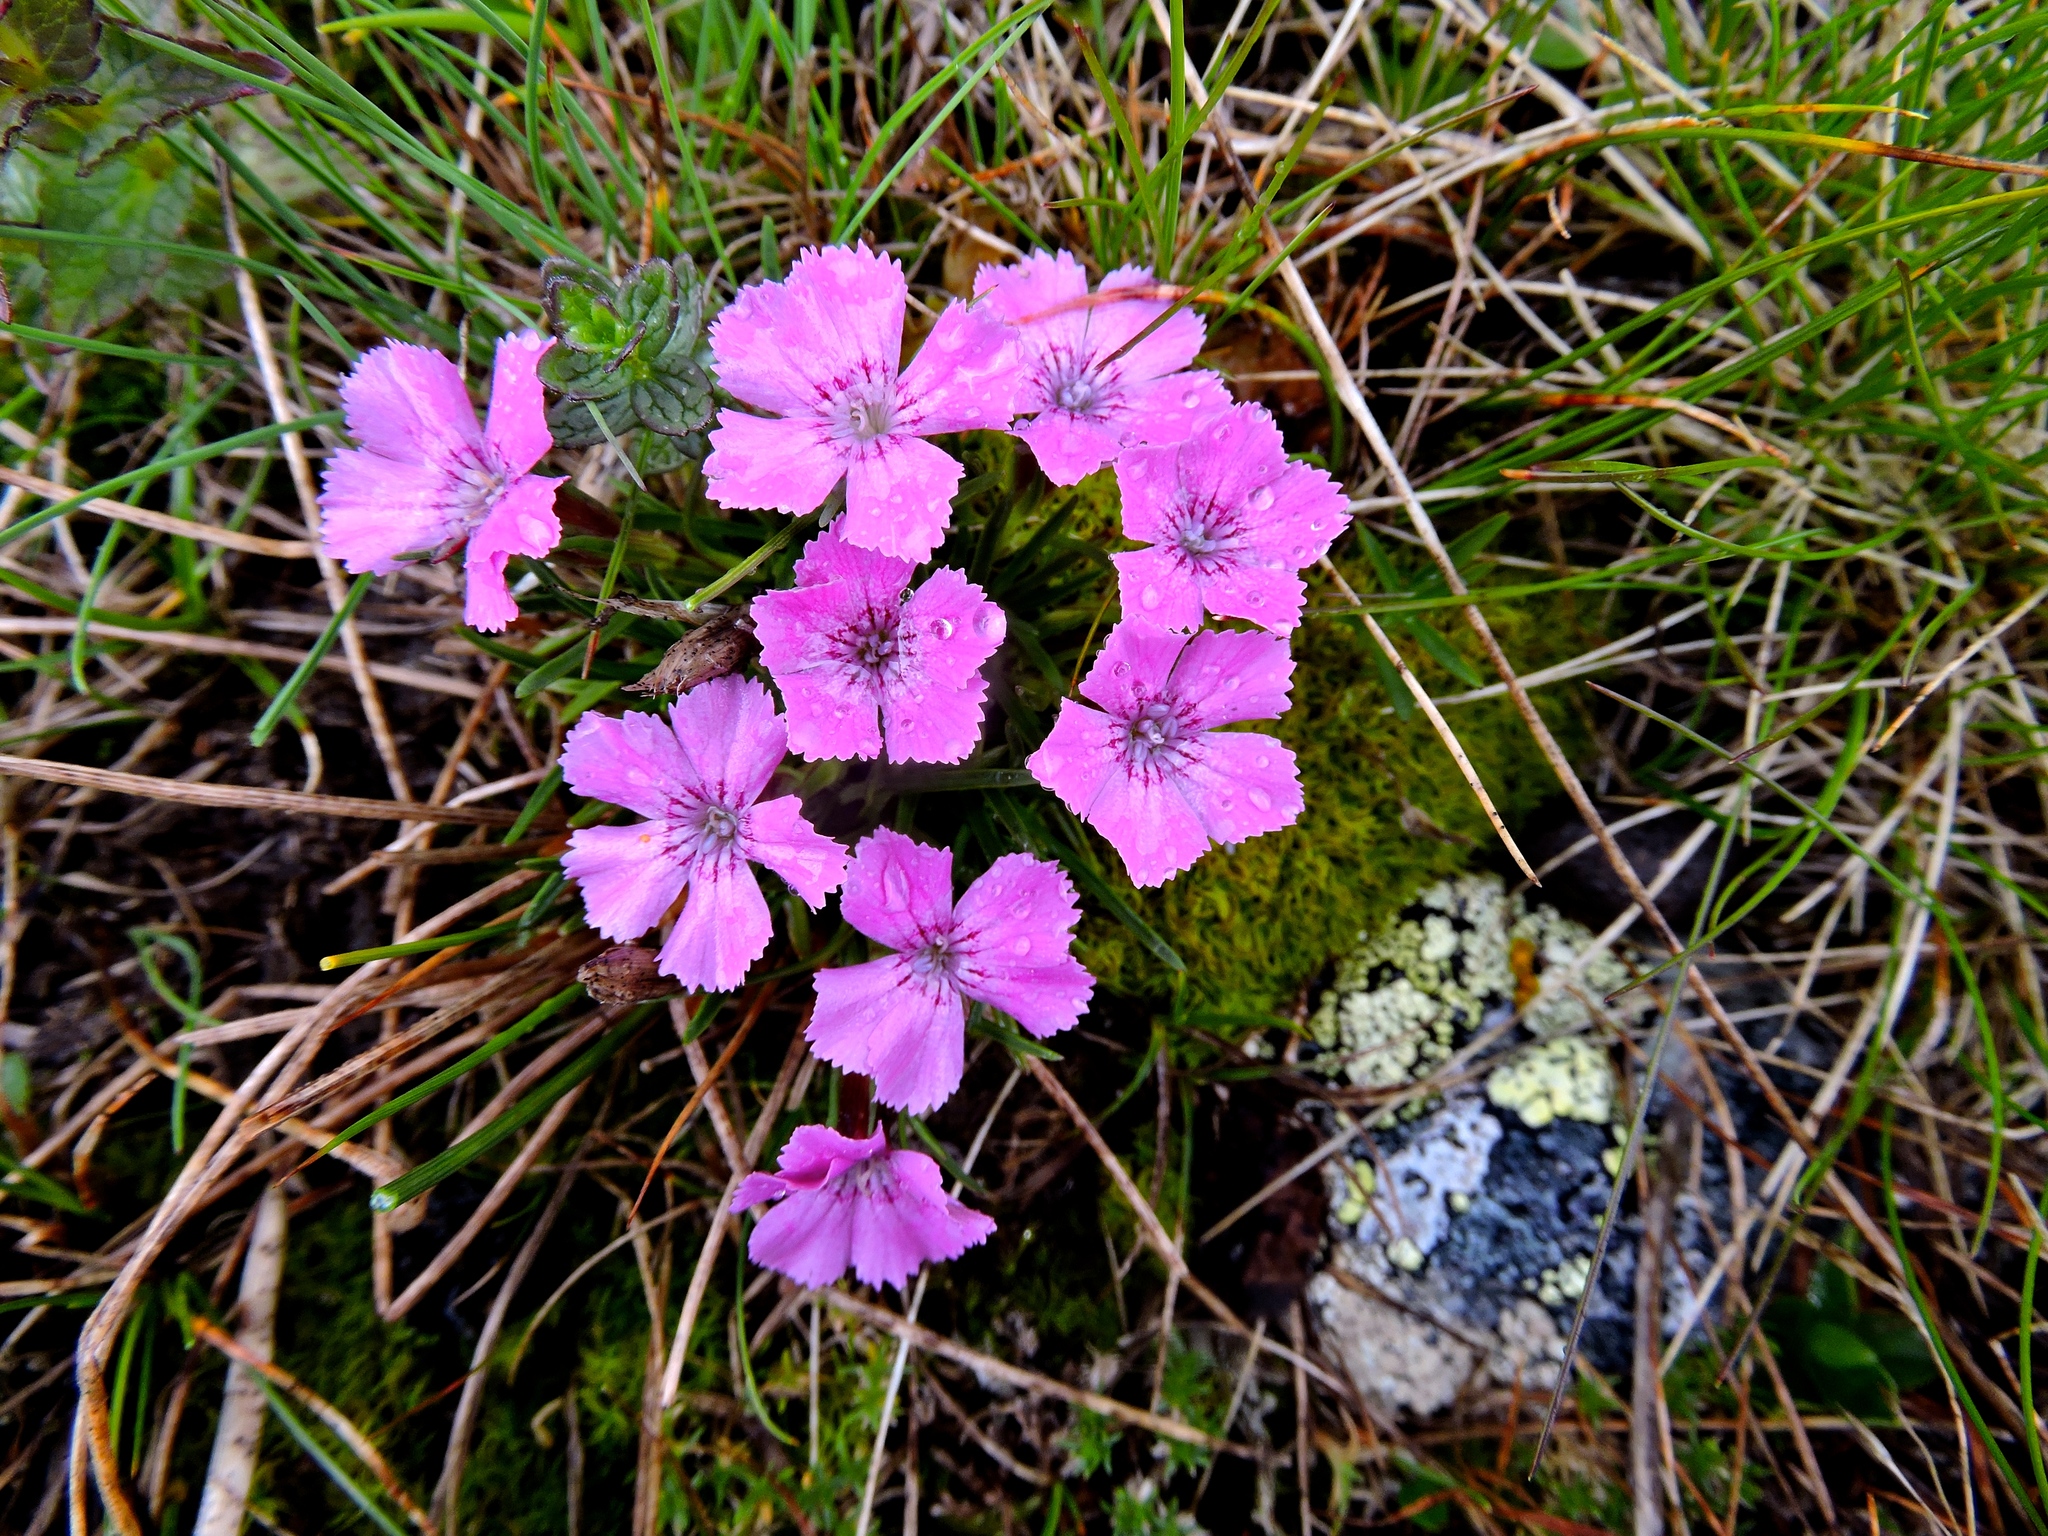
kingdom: Plantae
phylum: Tracheophyta
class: Magnoliopsida
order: Caryophyllales
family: Caryophyllaceae
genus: Dianthus
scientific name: Dianthus glacialis
